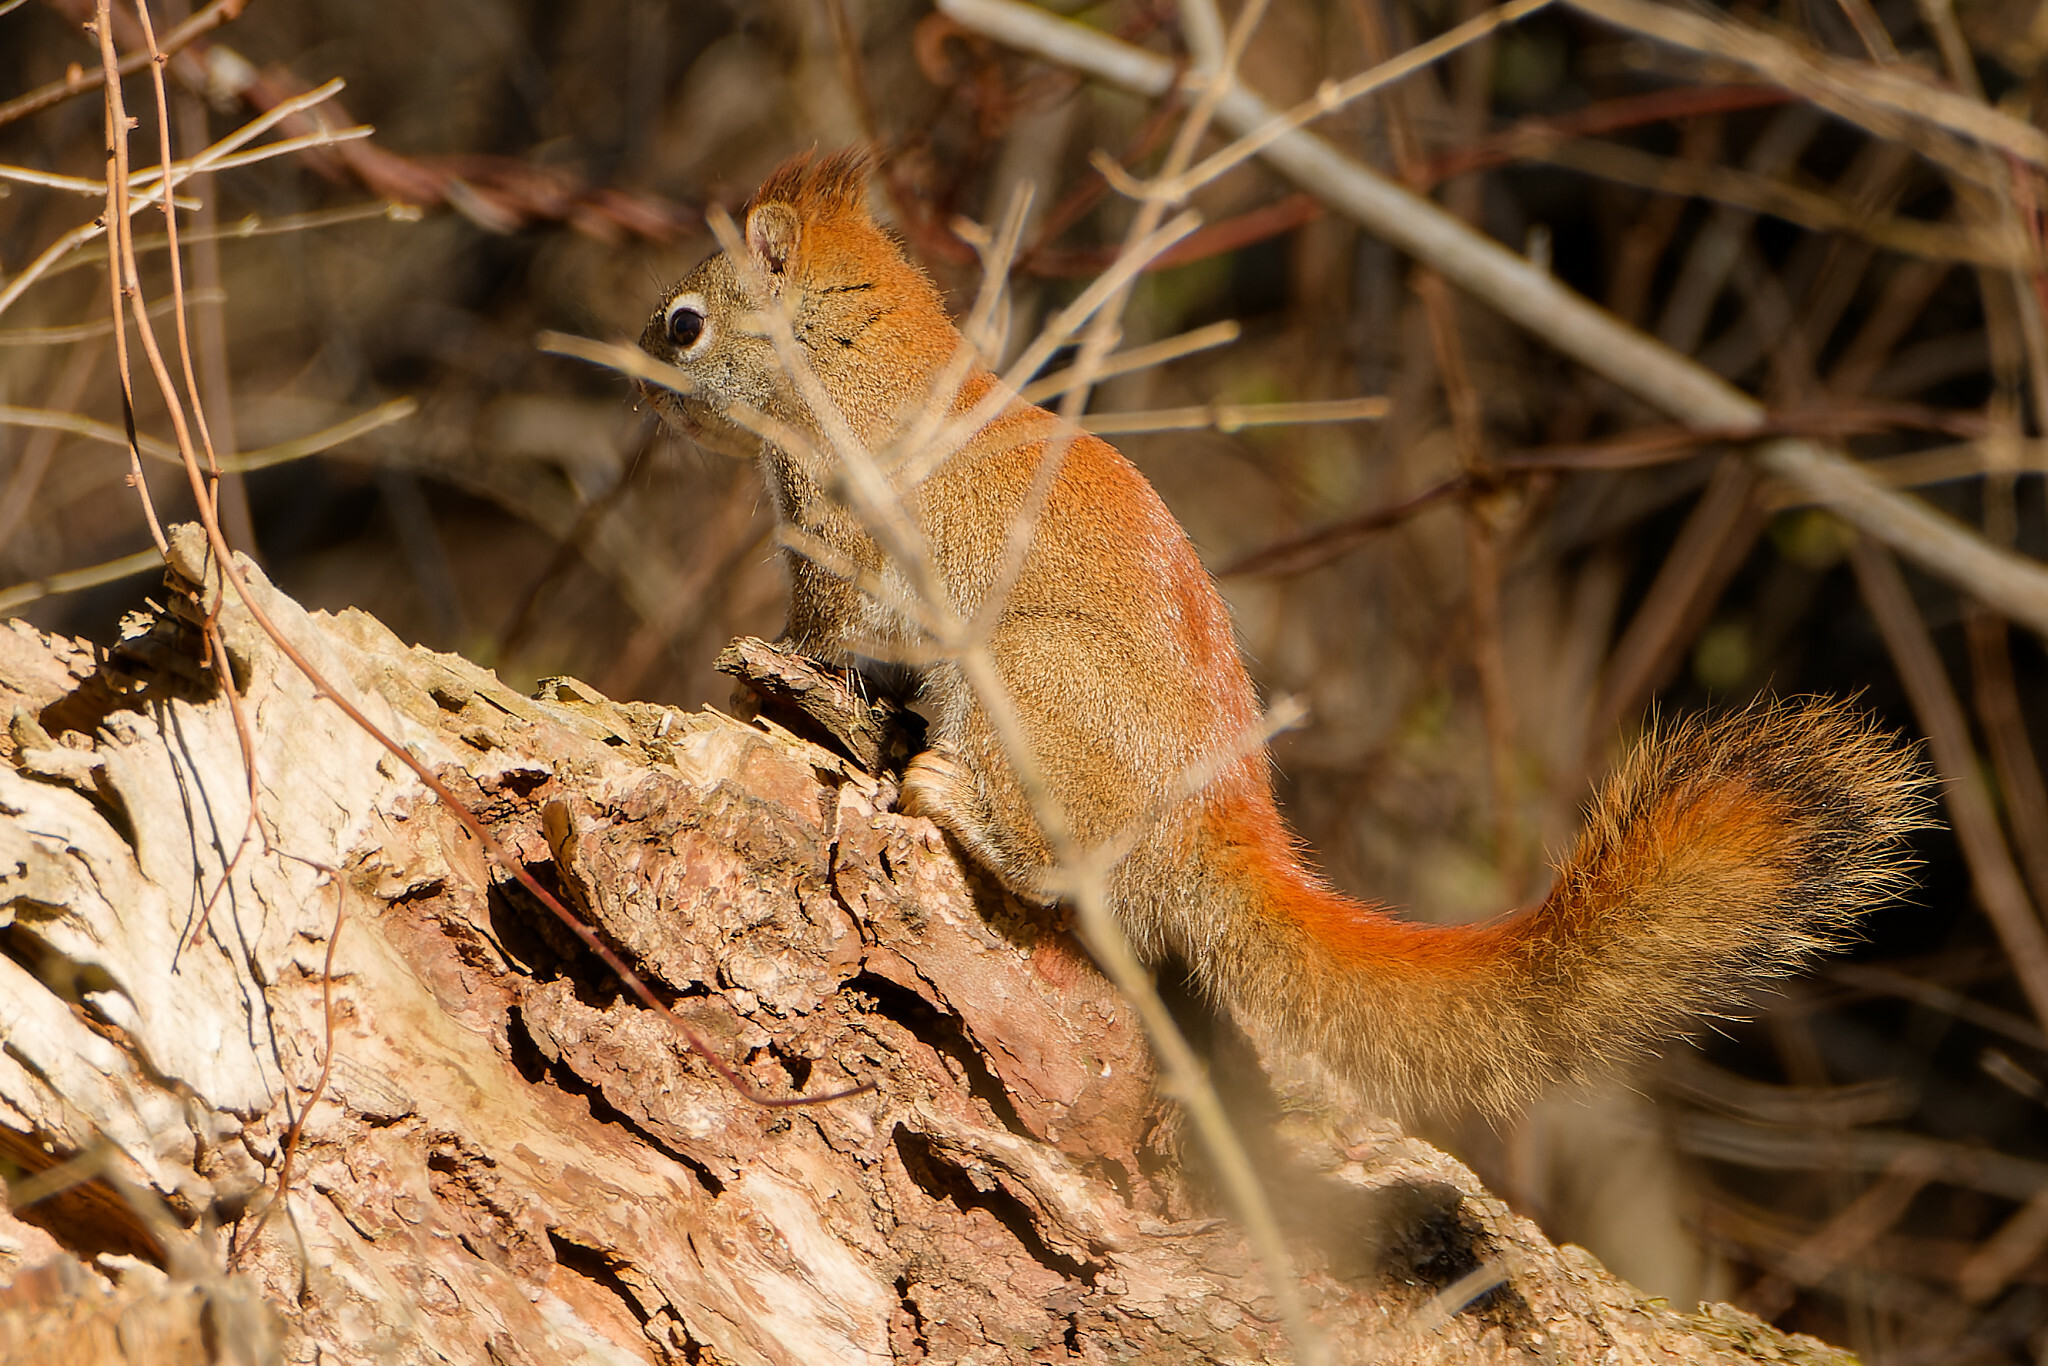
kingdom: Animalia
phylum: Chordata
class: Mammalia
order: Rodentia
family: Sciuridae
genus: Tamiasciurus
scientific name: Tamiasciurus hudsonicus
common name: Red squirrel
